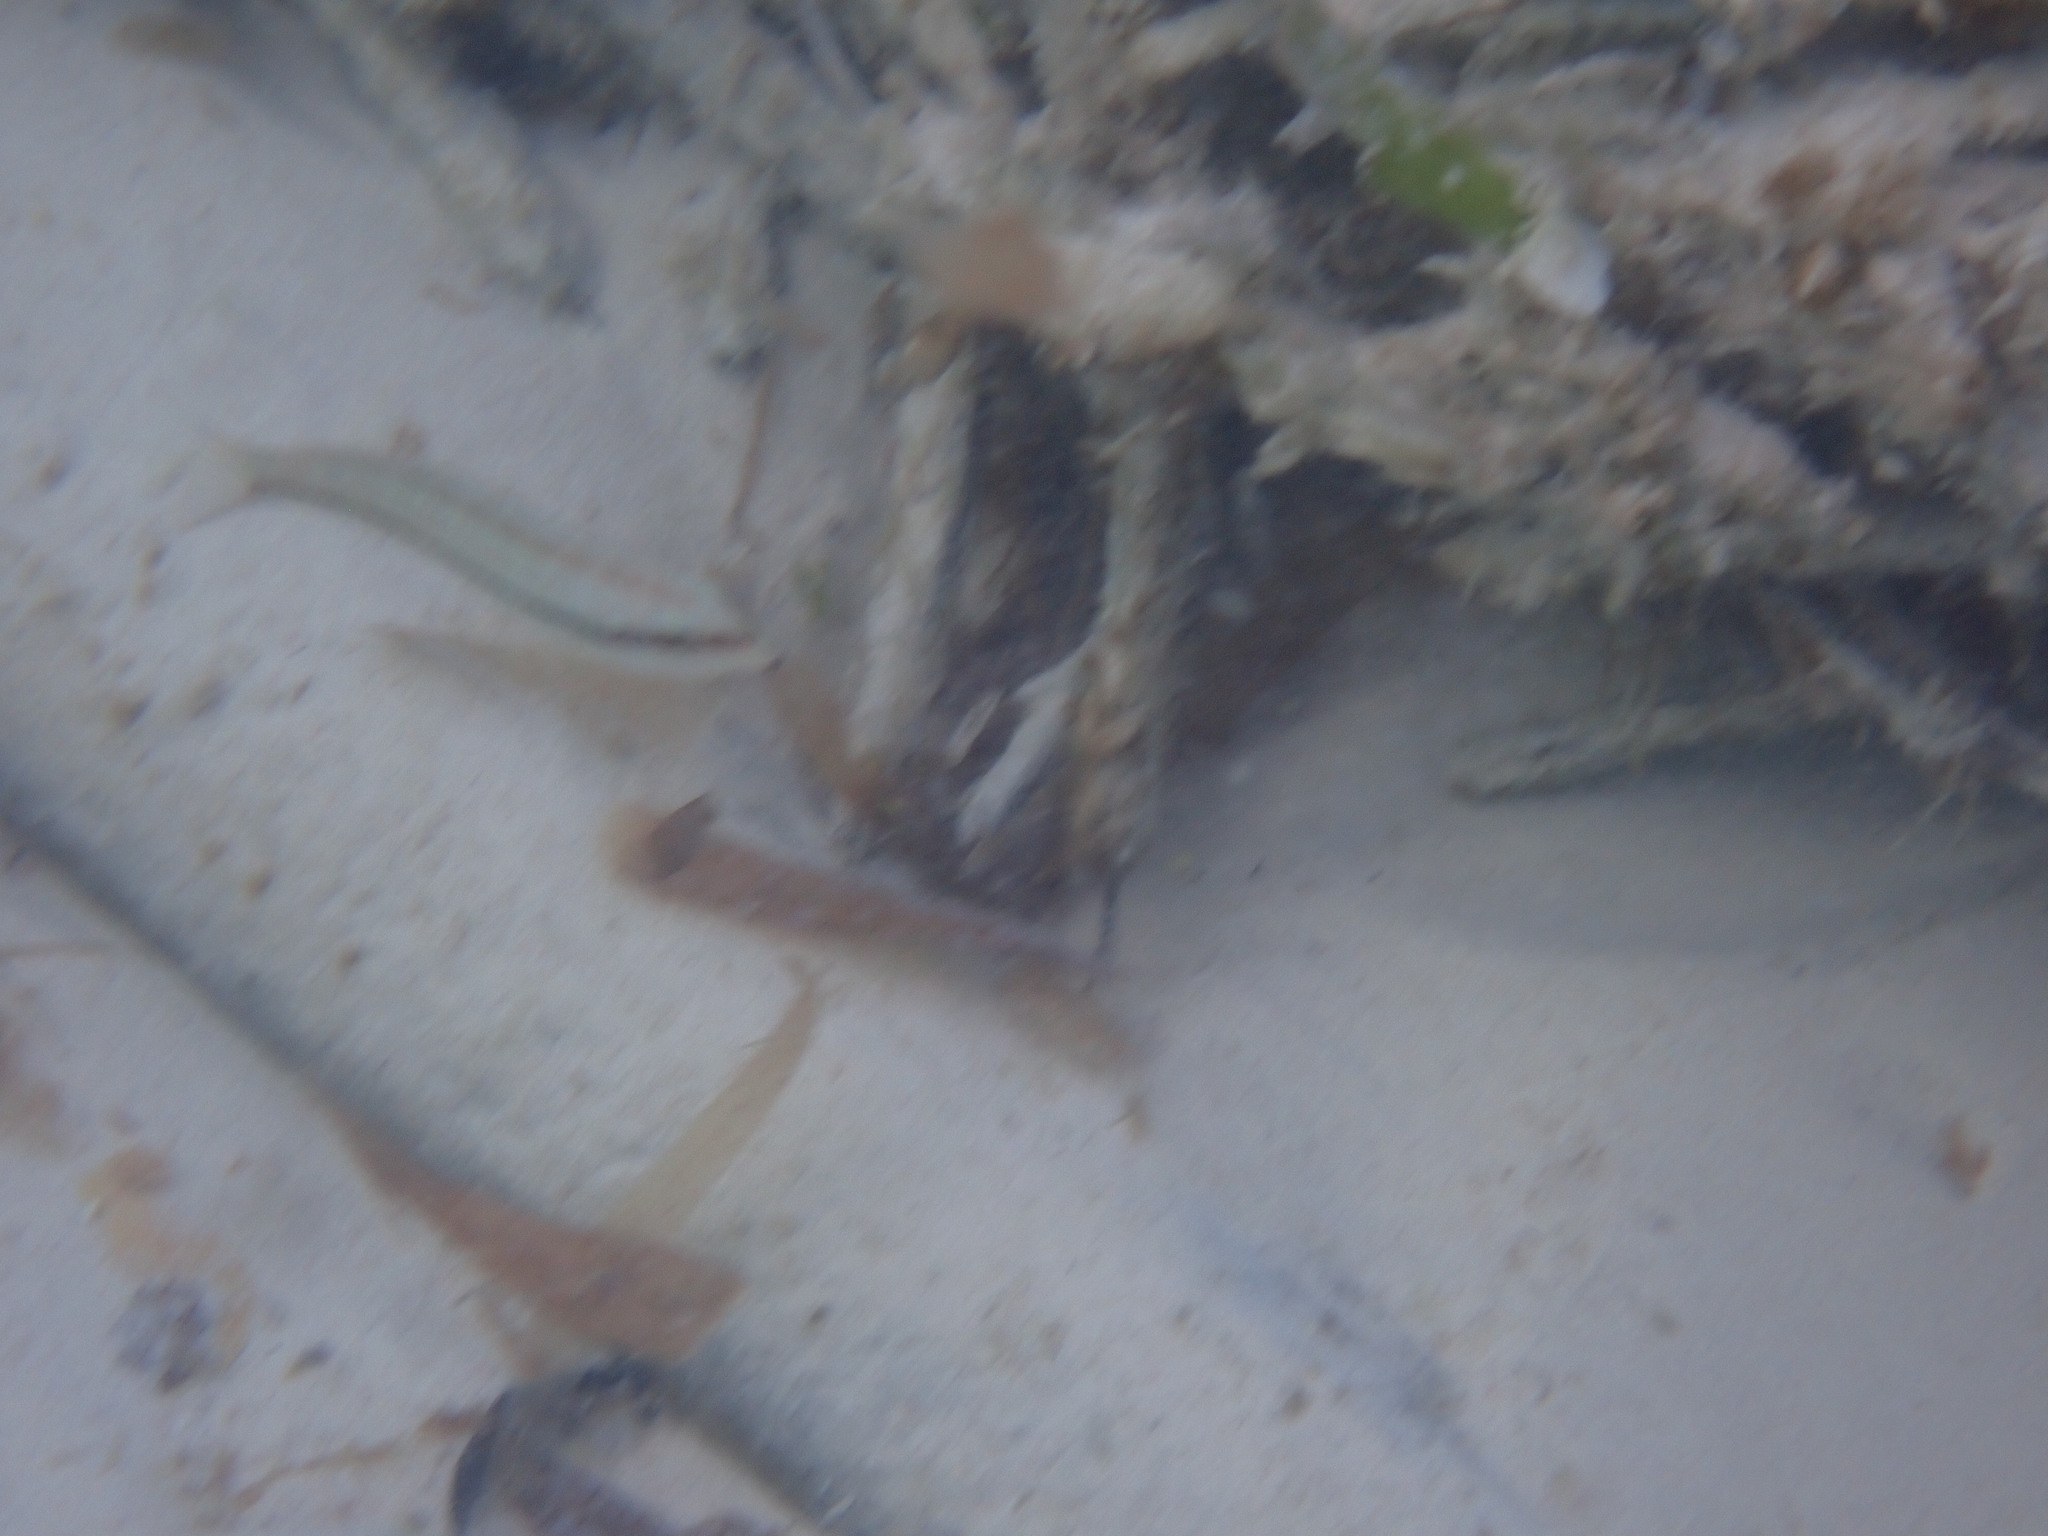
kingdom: Animalia
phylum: Chordata
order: Perciformes
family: Labridae
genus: Halichoeres
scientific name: Halichoeres bivittatus
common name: Slippery dick
